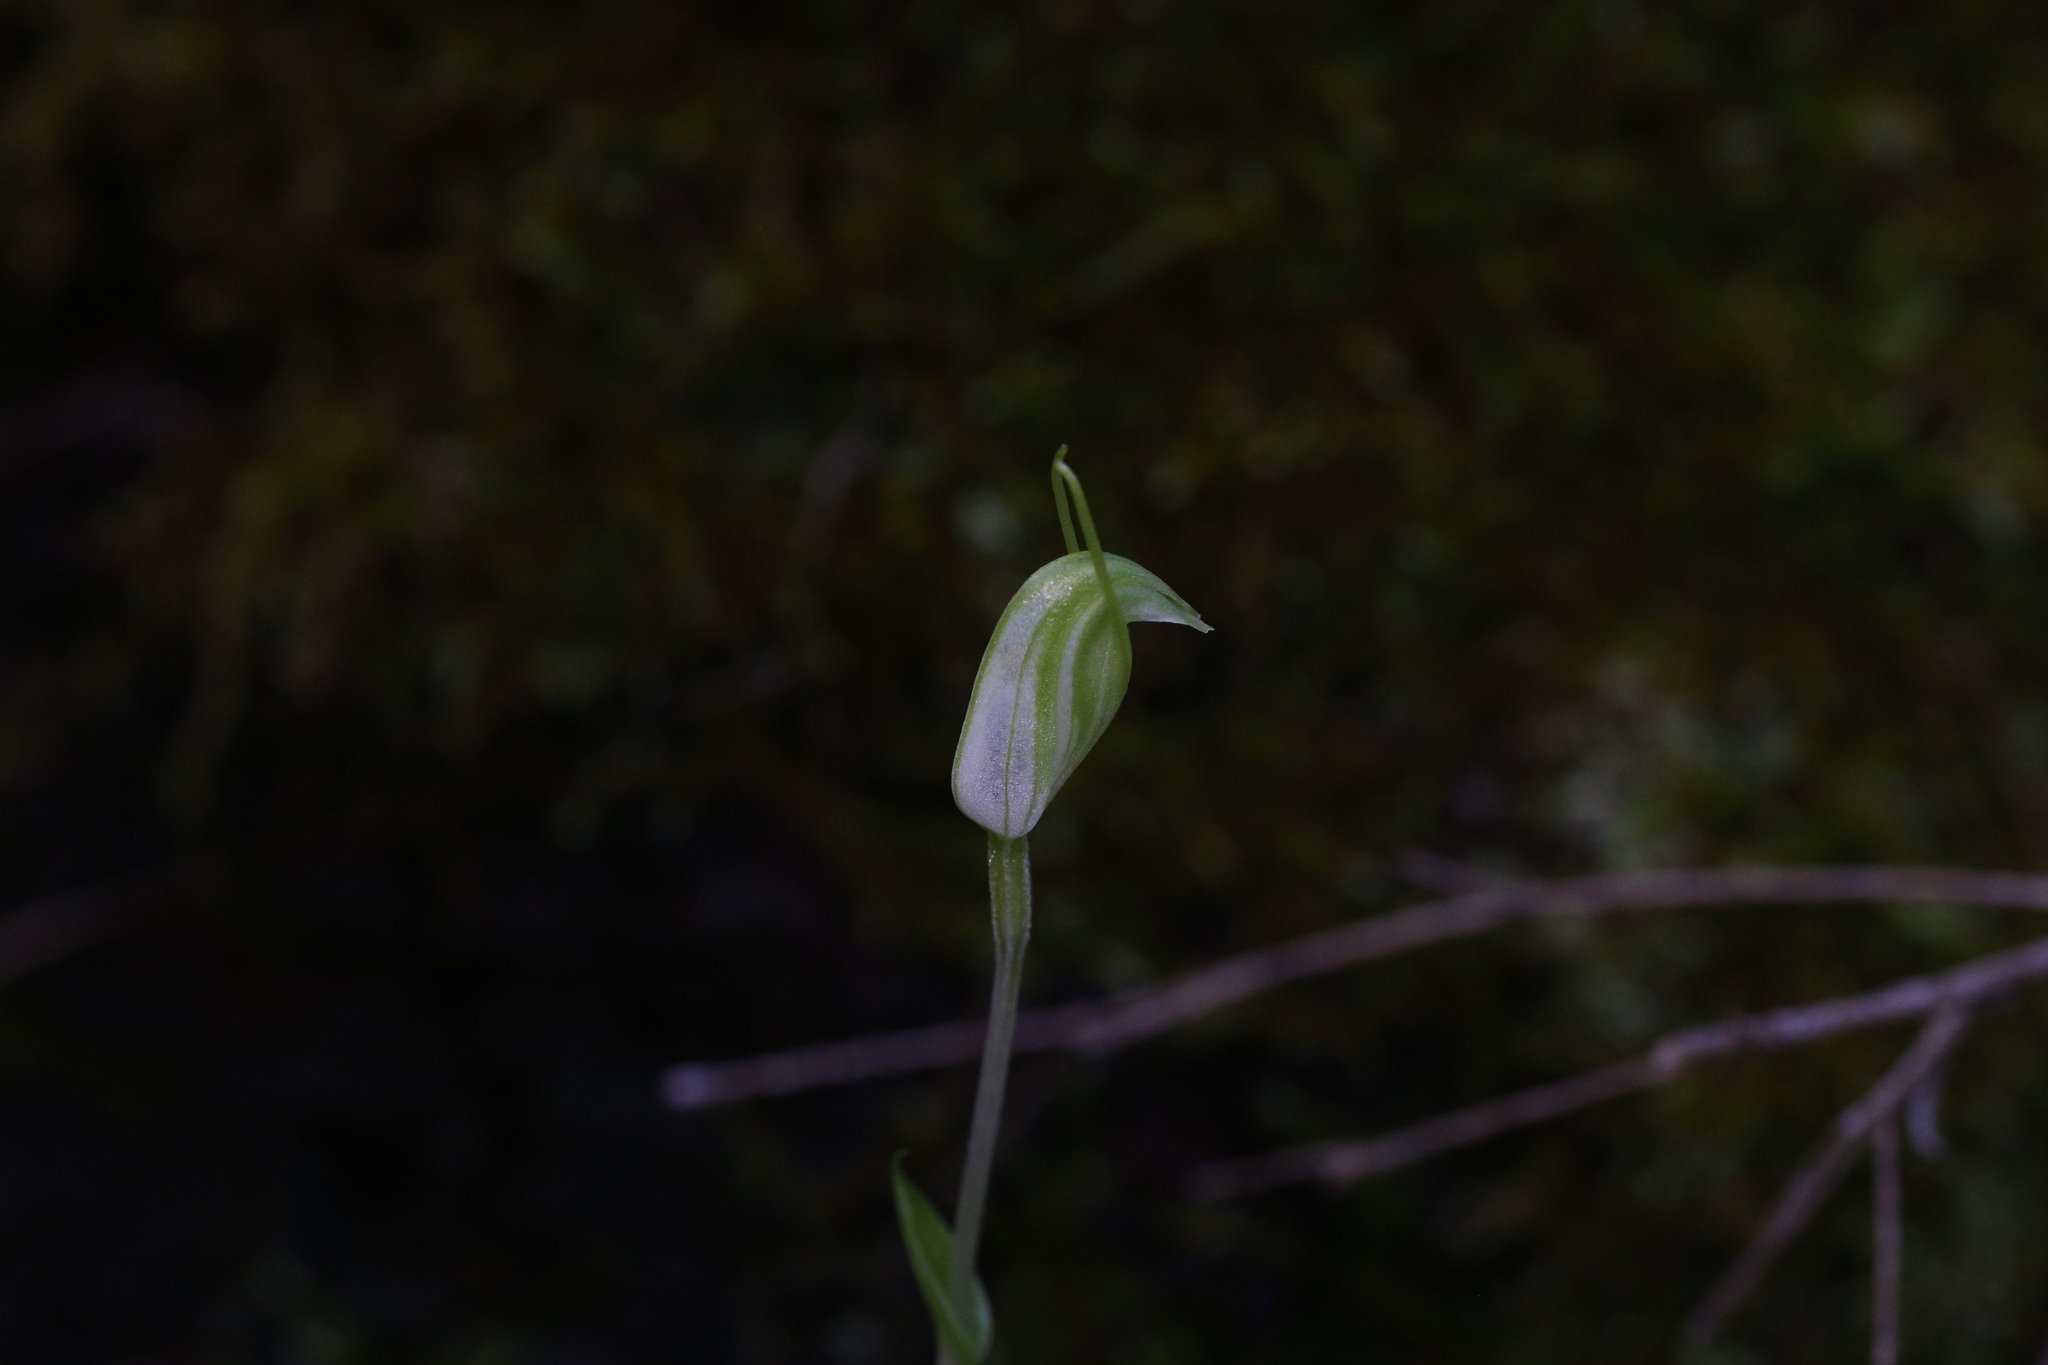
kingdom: Plantae
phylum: Tracheophyta
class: Liliopsida
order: Asparagales
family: Orchidaceae
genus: Pterostylis
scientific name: Pterostylis ectypha
